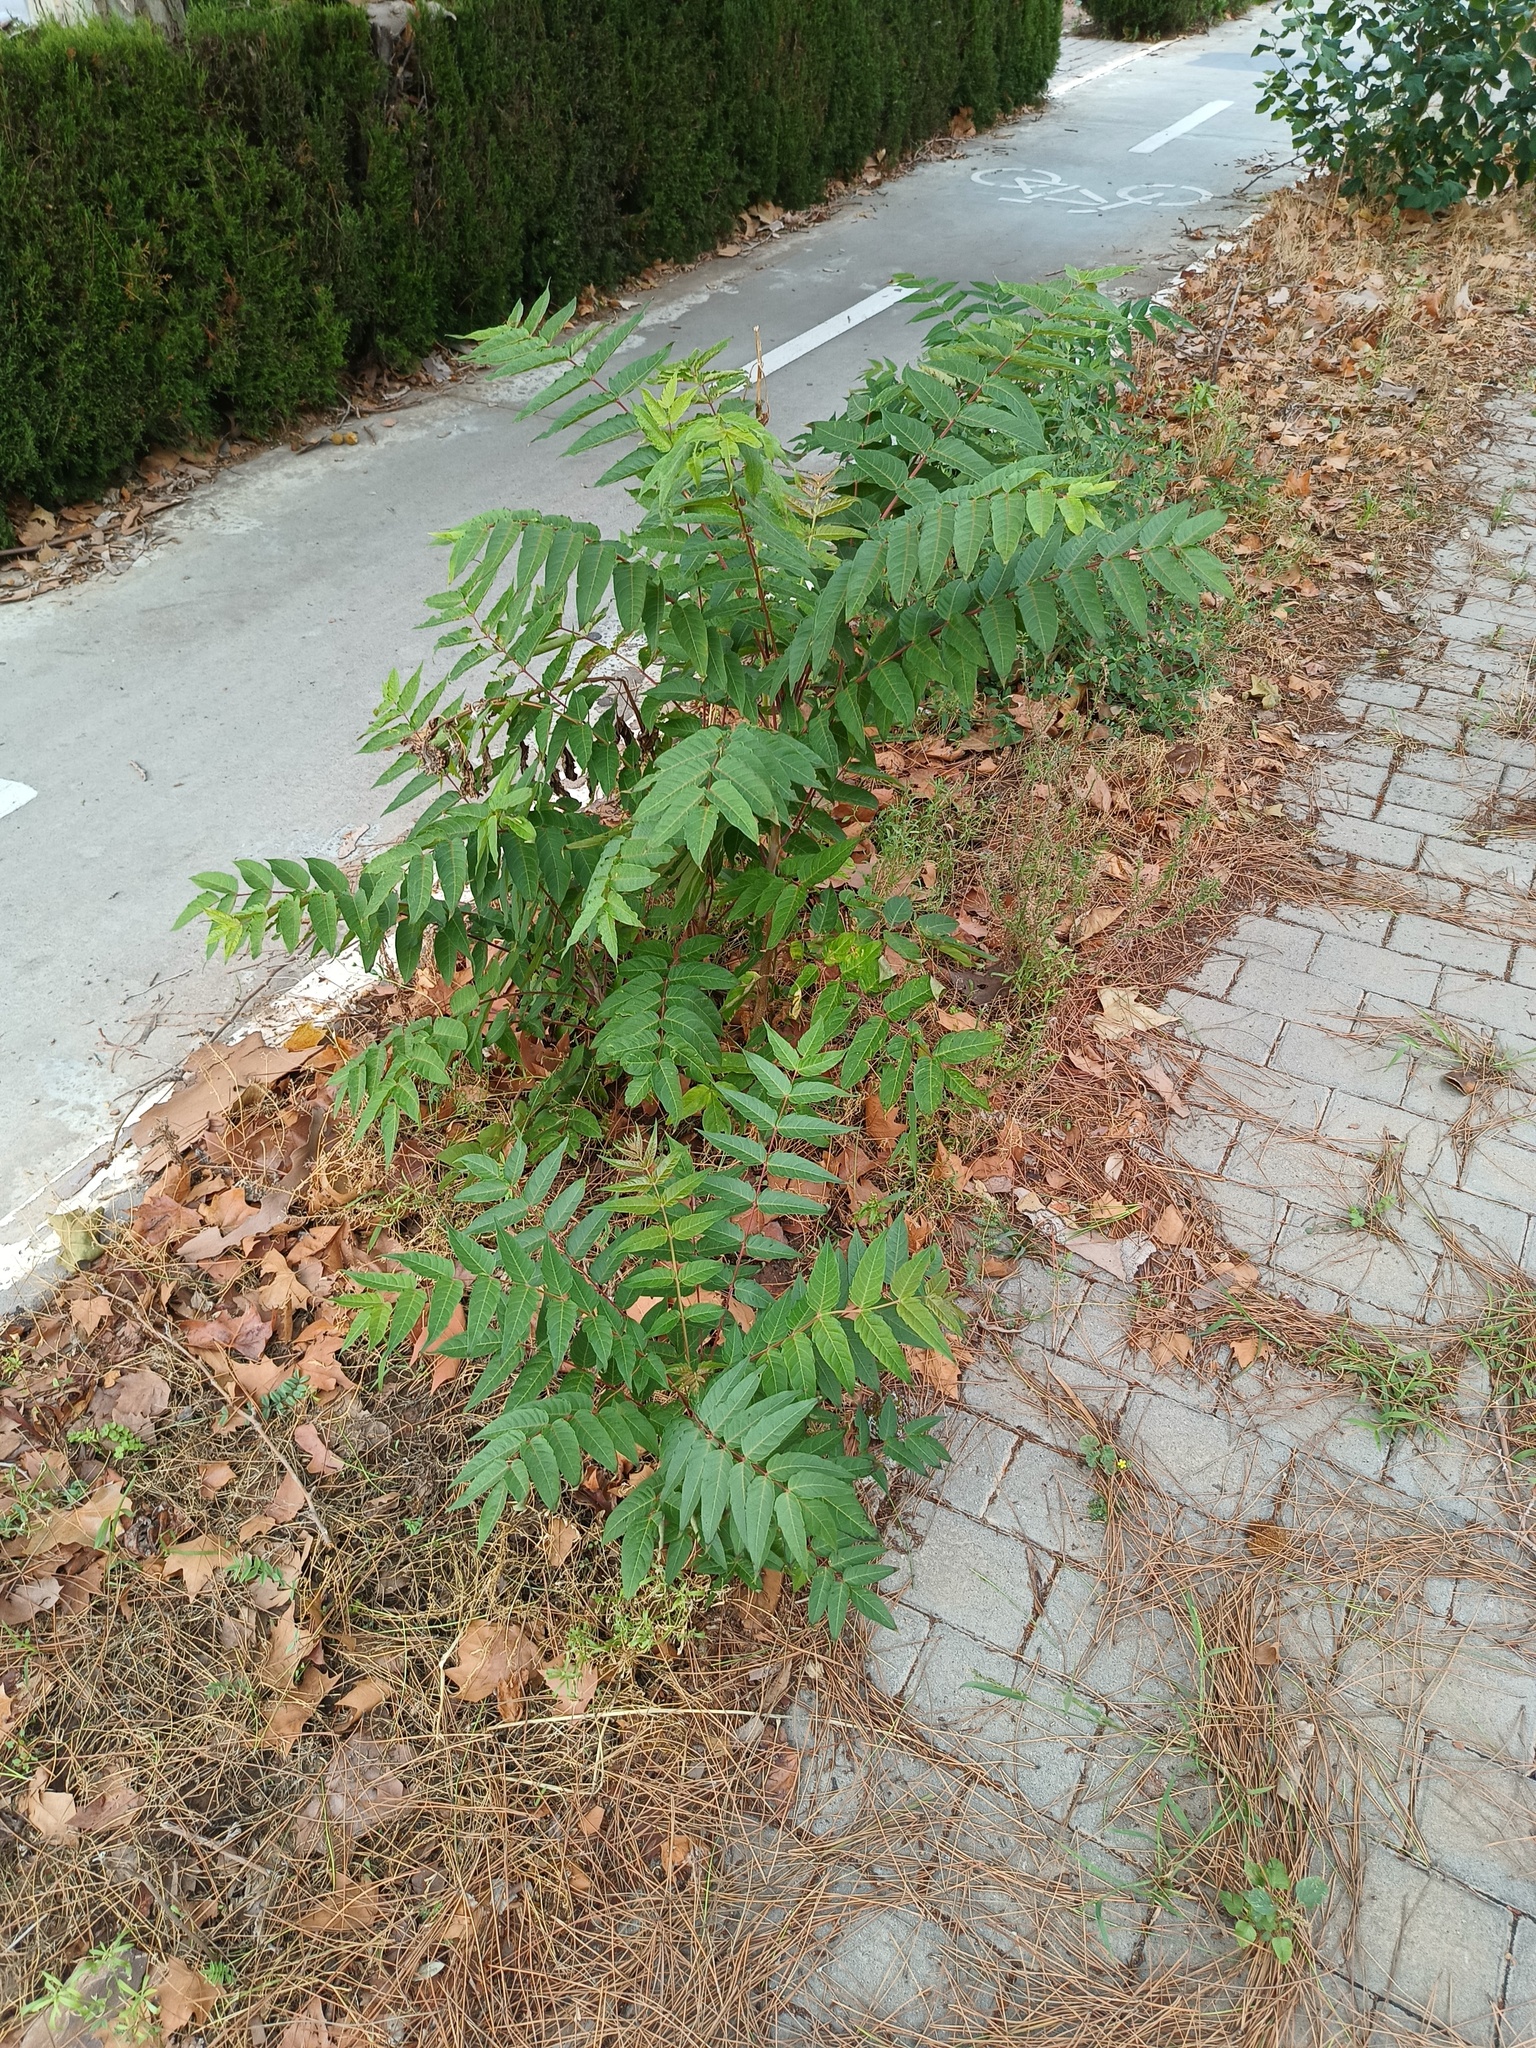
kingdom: Plantae
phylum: Tracheophyta
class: Magnoliopsida
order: Sapindales
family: Simaroubaceae
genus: Ailanthus
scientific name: Ailanthus altissima
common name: Tree-of-heaven
